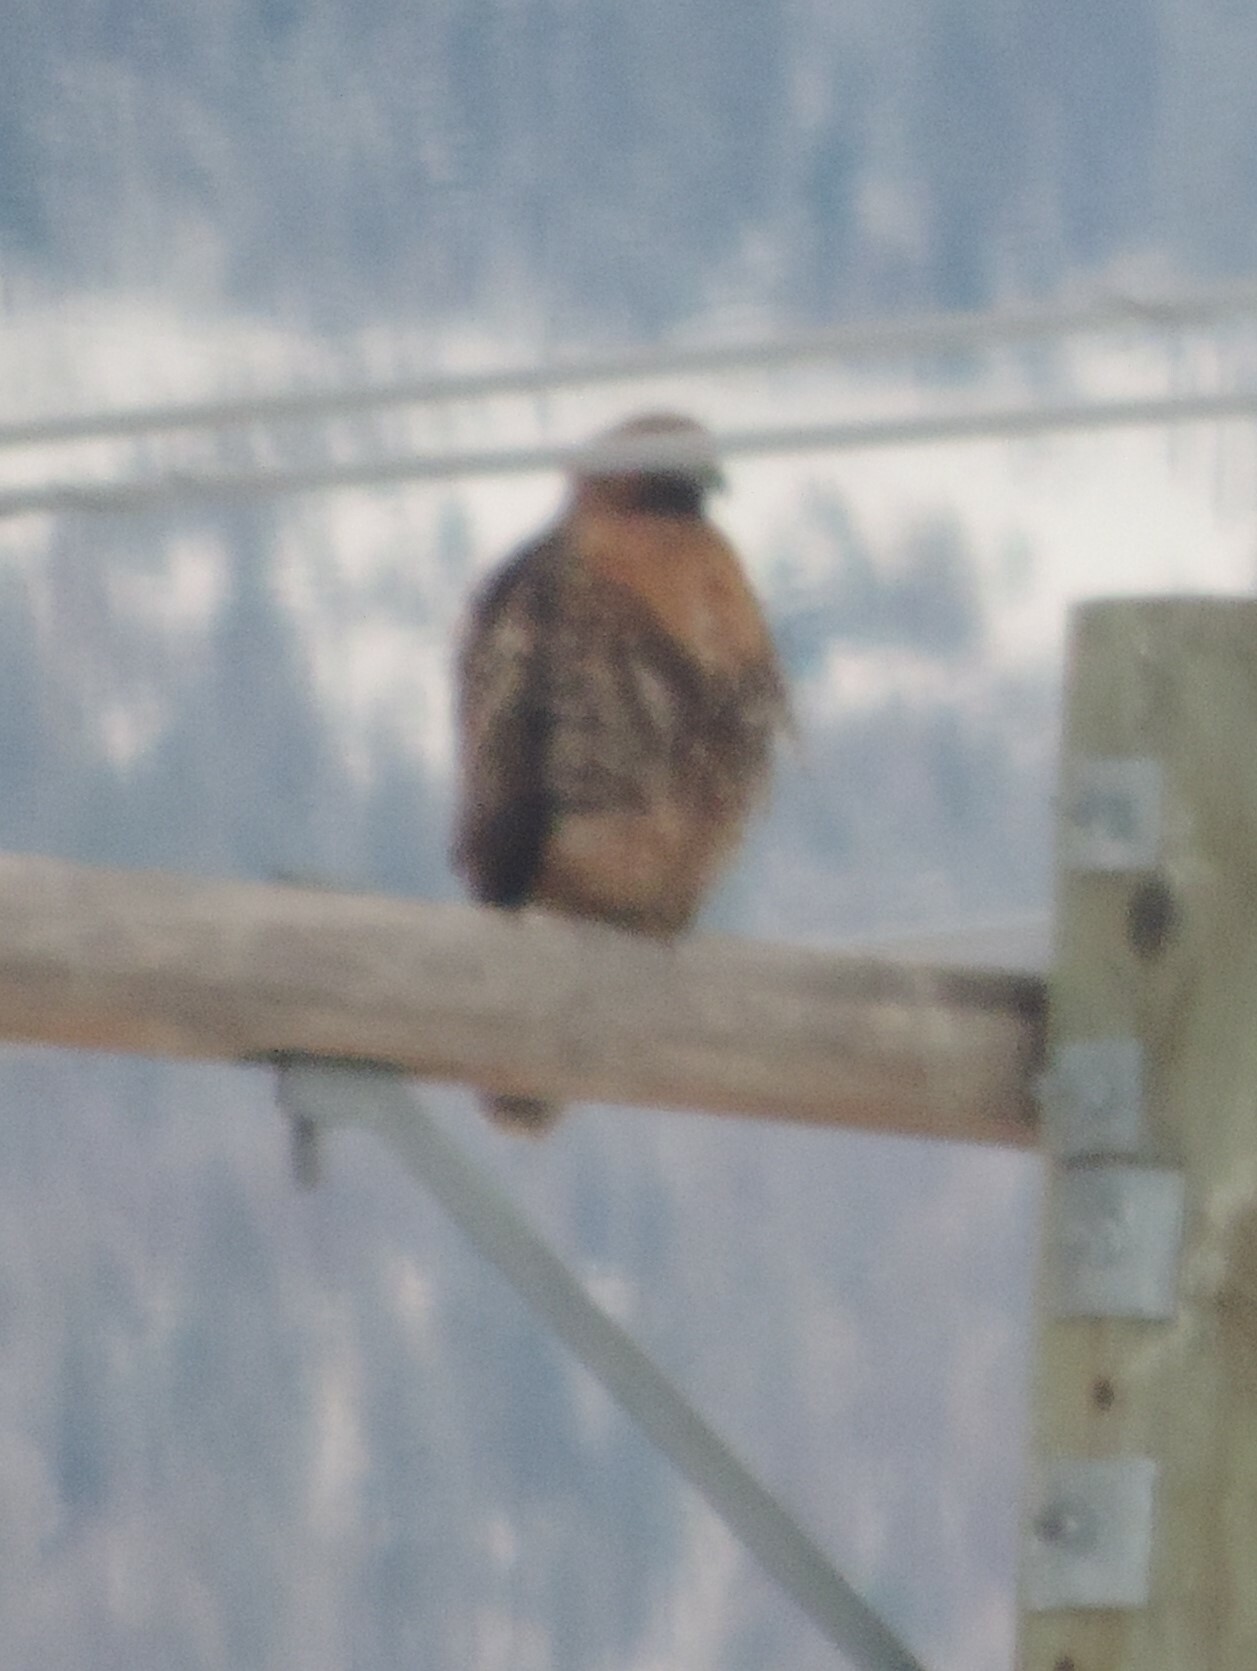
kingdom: Animalia
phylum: Chordata
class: Aves
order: Accipitriformes
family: Accipitridae
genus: Buteo
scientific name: Buteo jamaicensis
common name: Red-tailed hawk
